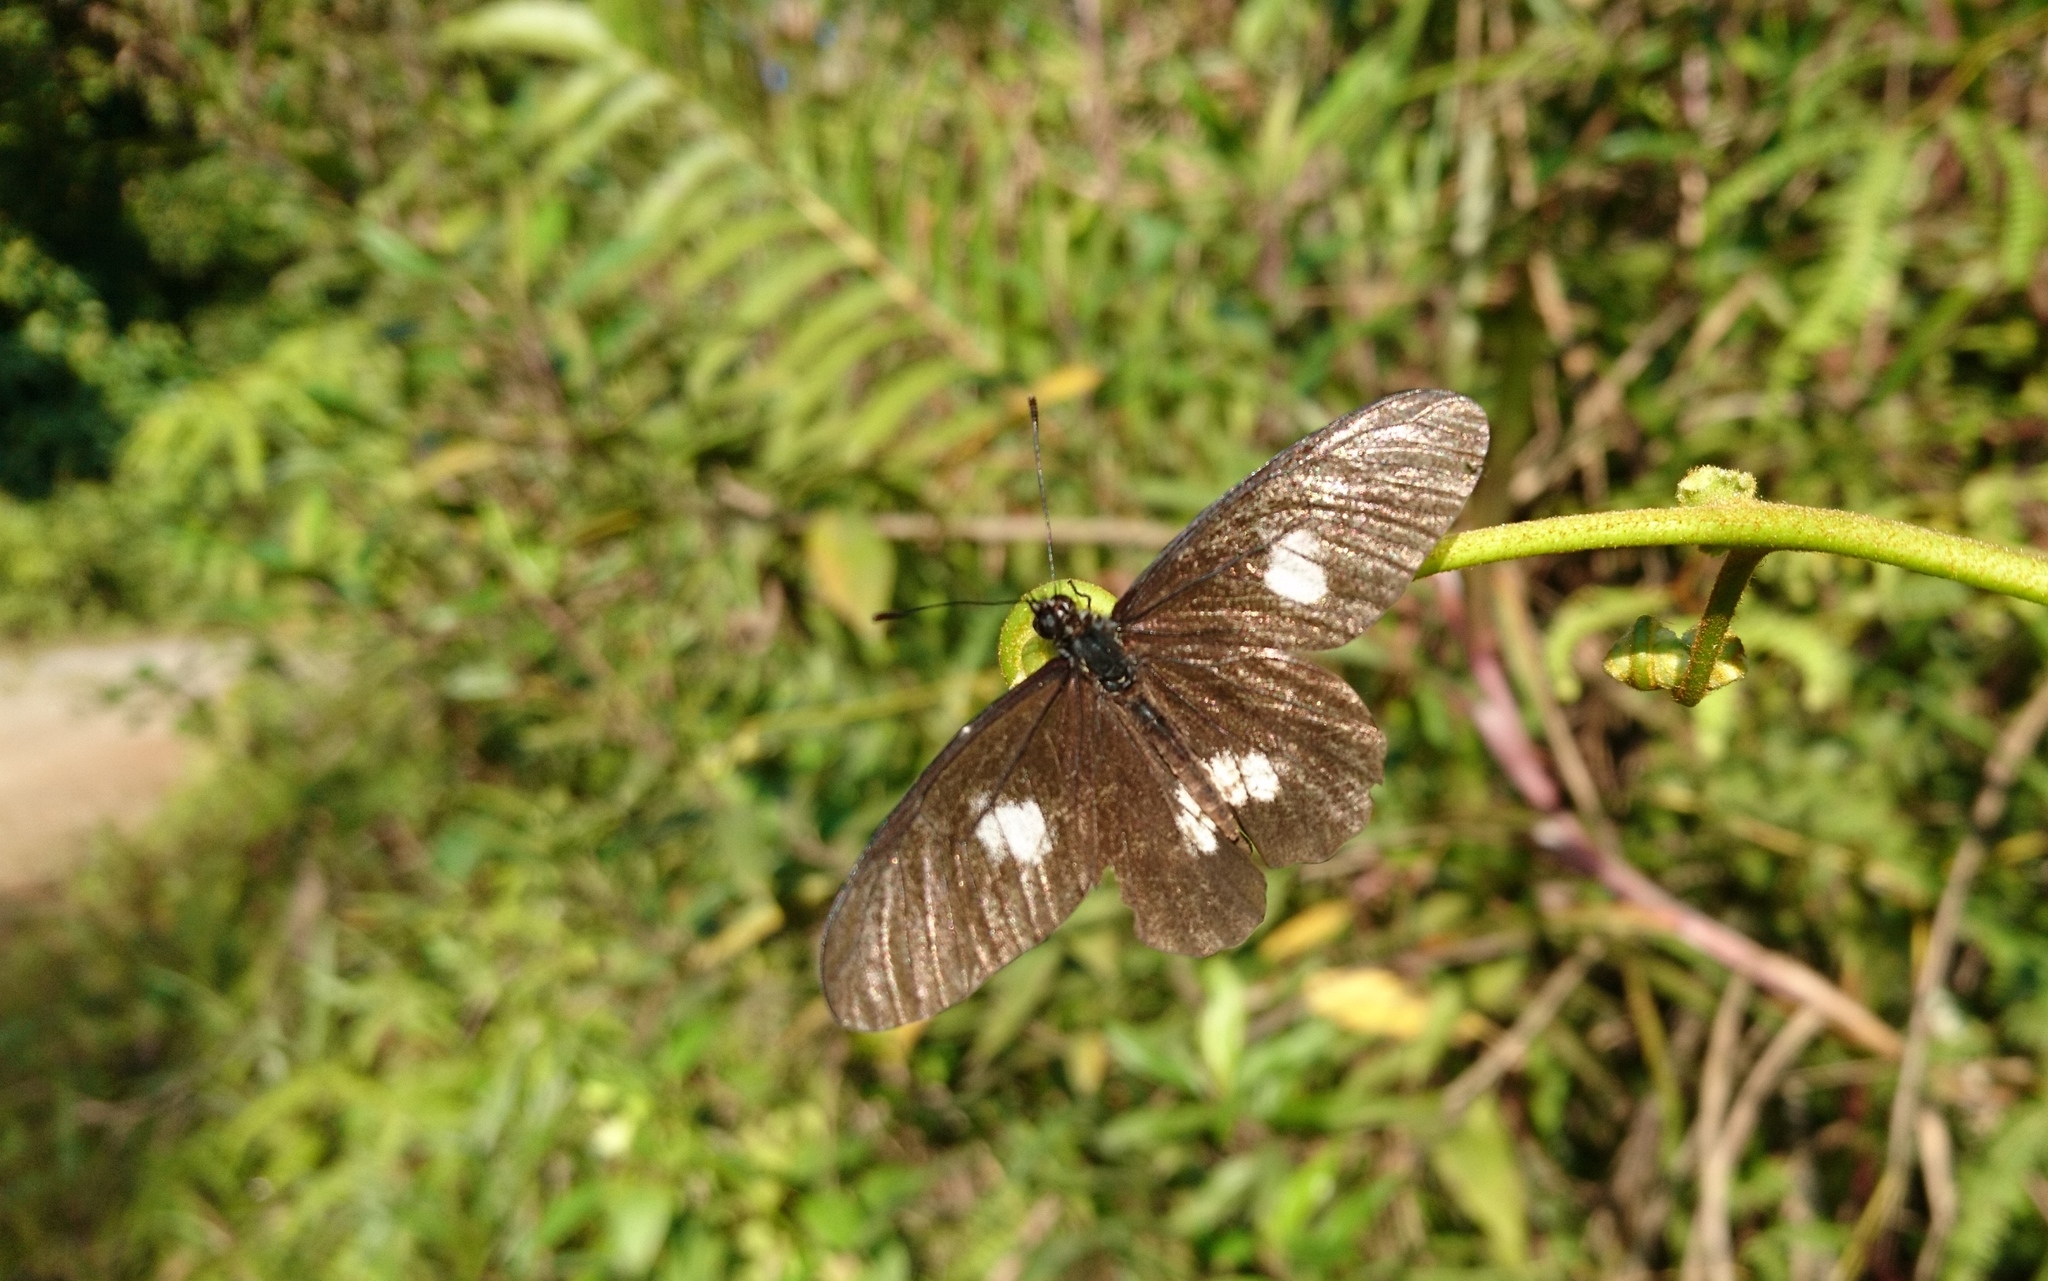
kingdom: Animalia
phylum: Arthropoda
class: Insecta
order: Lepidoptera
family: Pieridae
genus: Archonias
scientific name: Archonias brassolis
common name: Cattleheart white
